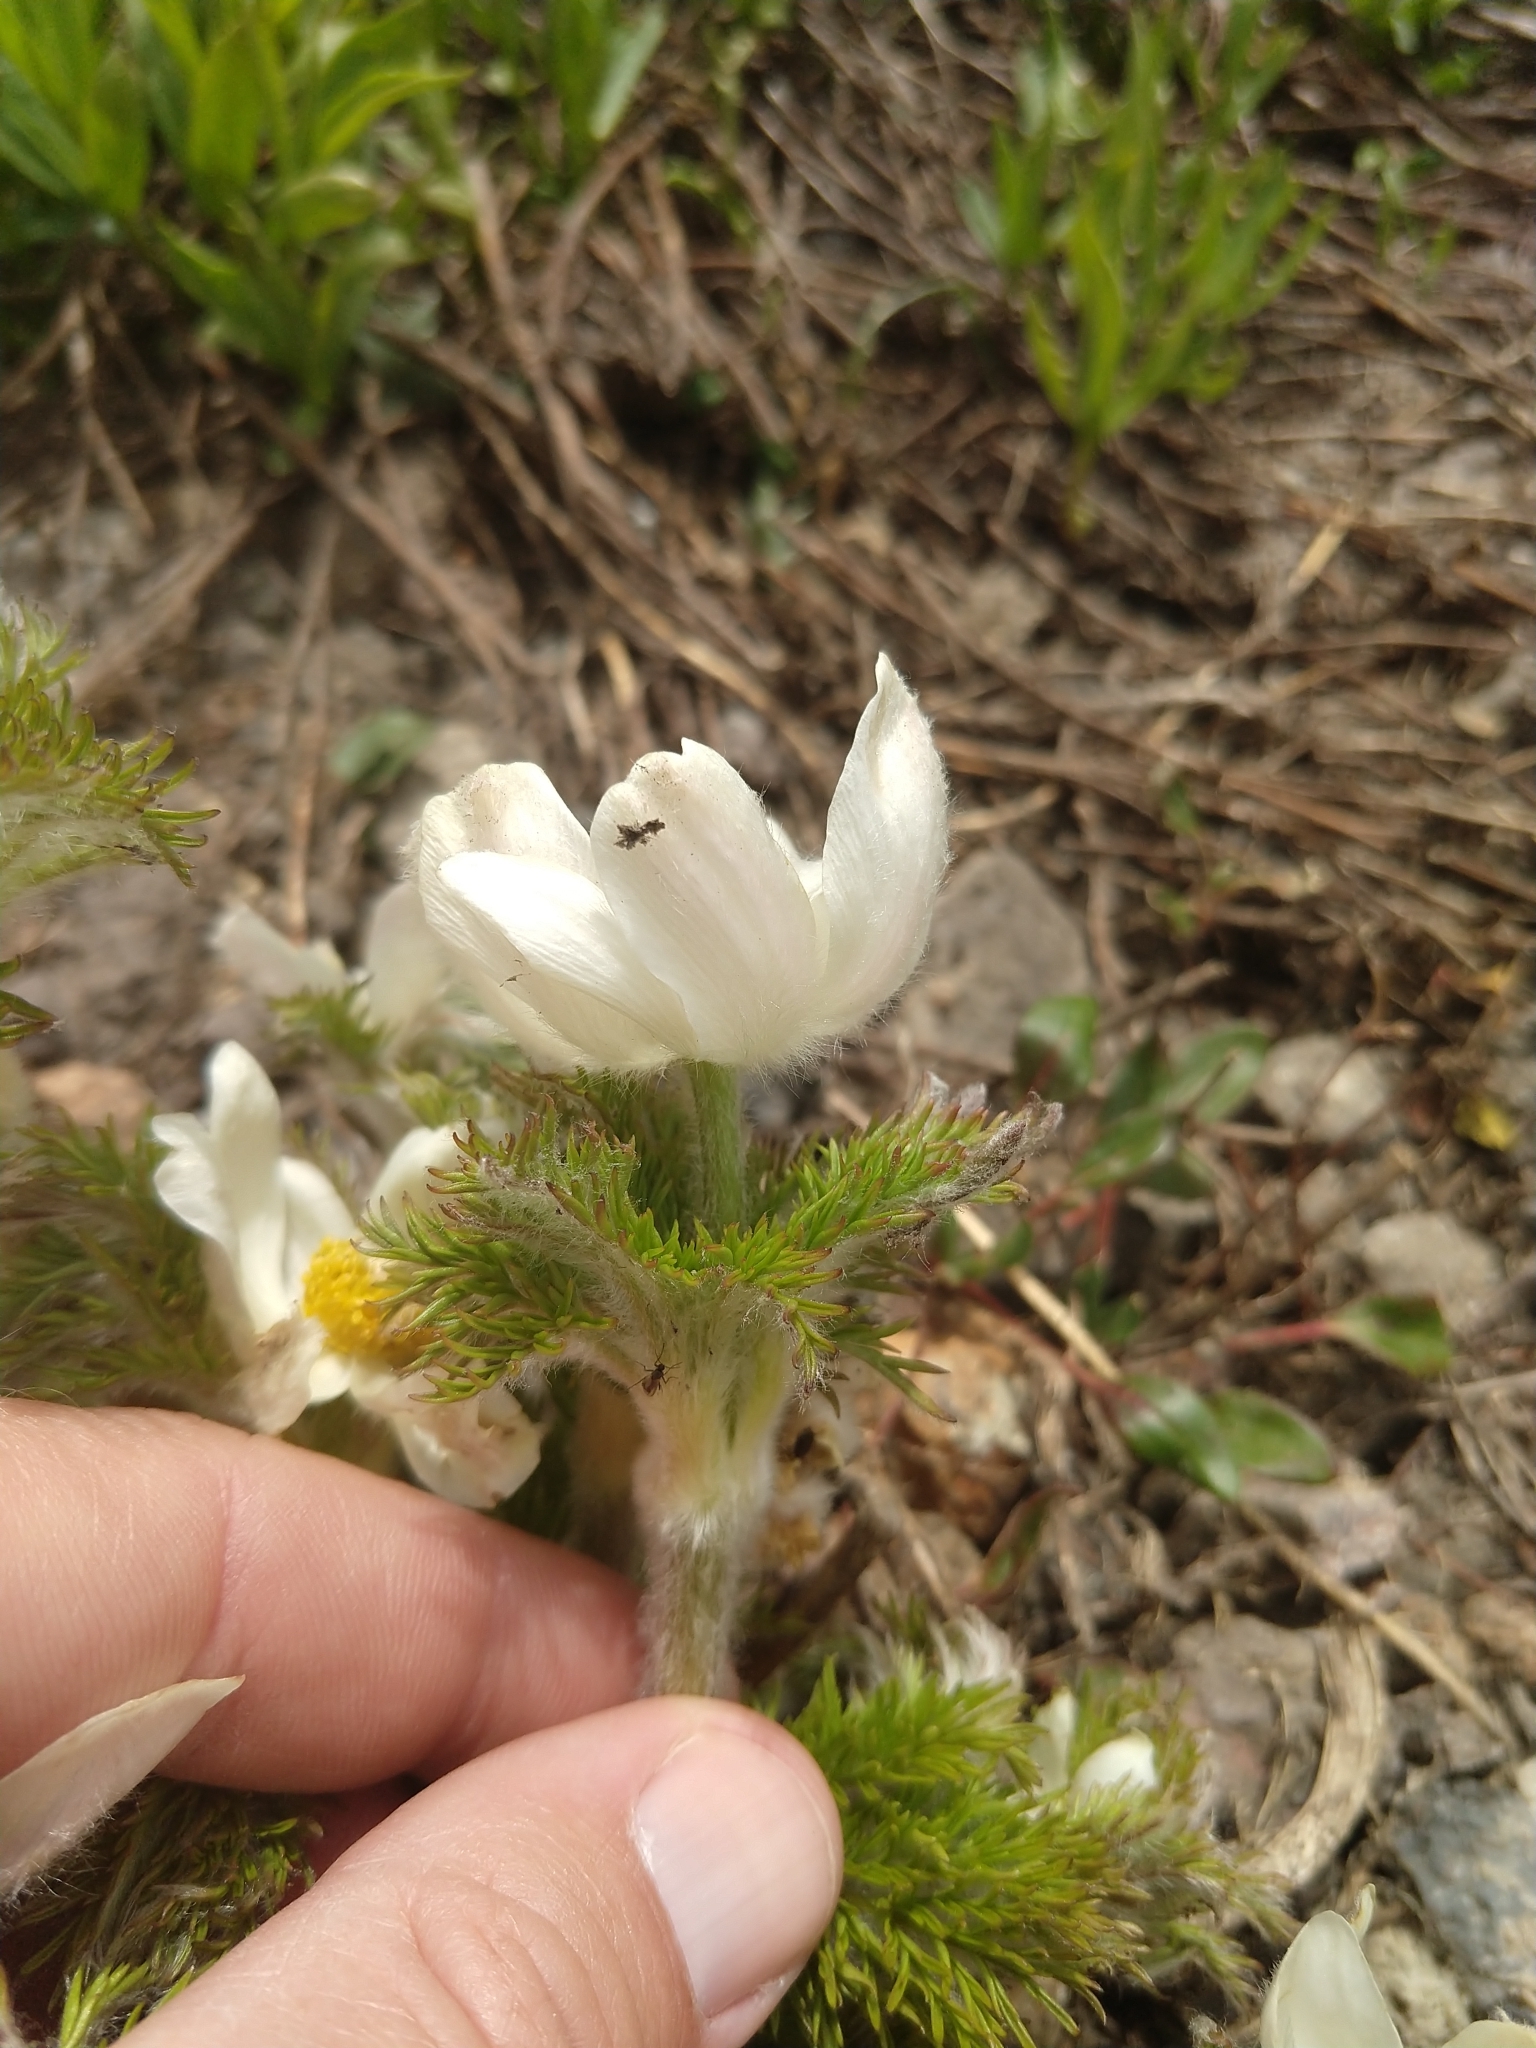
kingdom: Plantae
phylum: Tracheophyta
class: Magnoliopsida
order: Ranunculales
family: Ranunculaceae
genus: Pulsatilla
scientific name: Pulsatilla occidentalis
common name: Mountain pasqueflower
